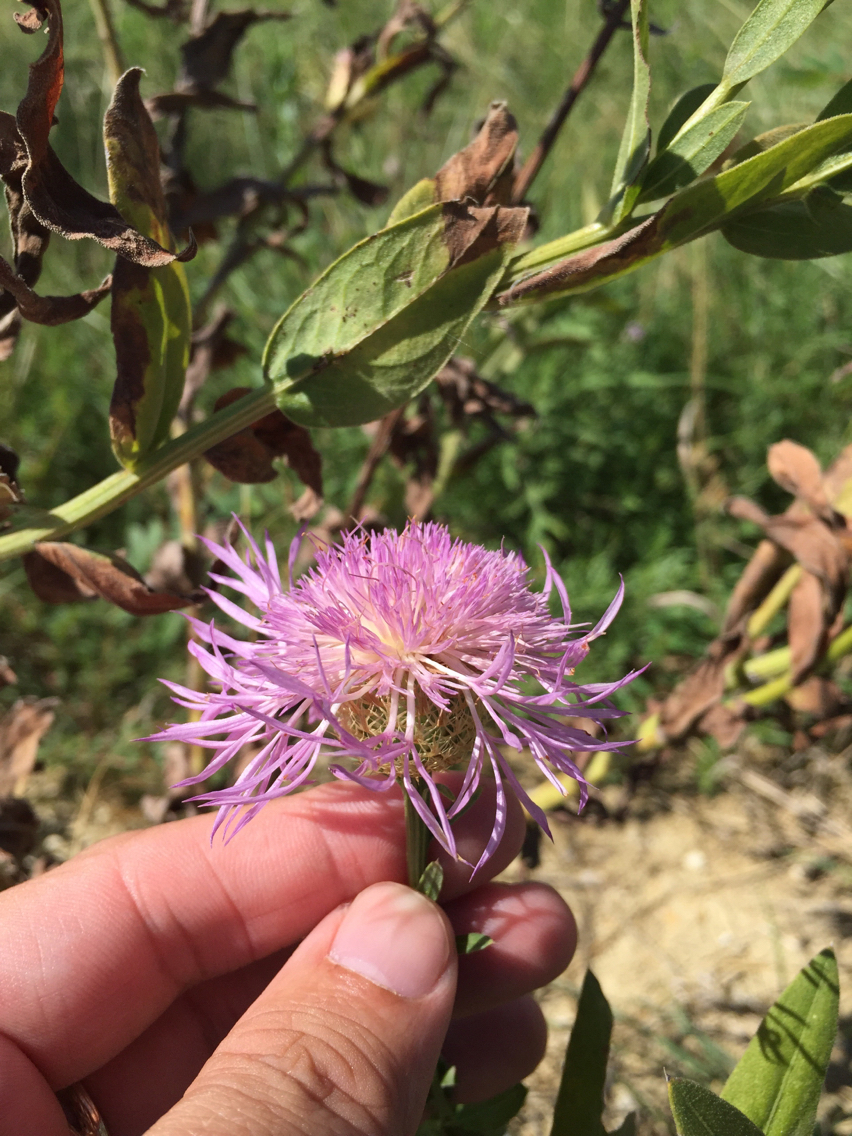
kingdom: Plantae
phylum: Tracheophyta
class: Magnoliopsida
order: Asterales
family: Asteraceae
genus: Plectocephalus
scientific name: Plectocephalus americanus
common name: American basket-flower
